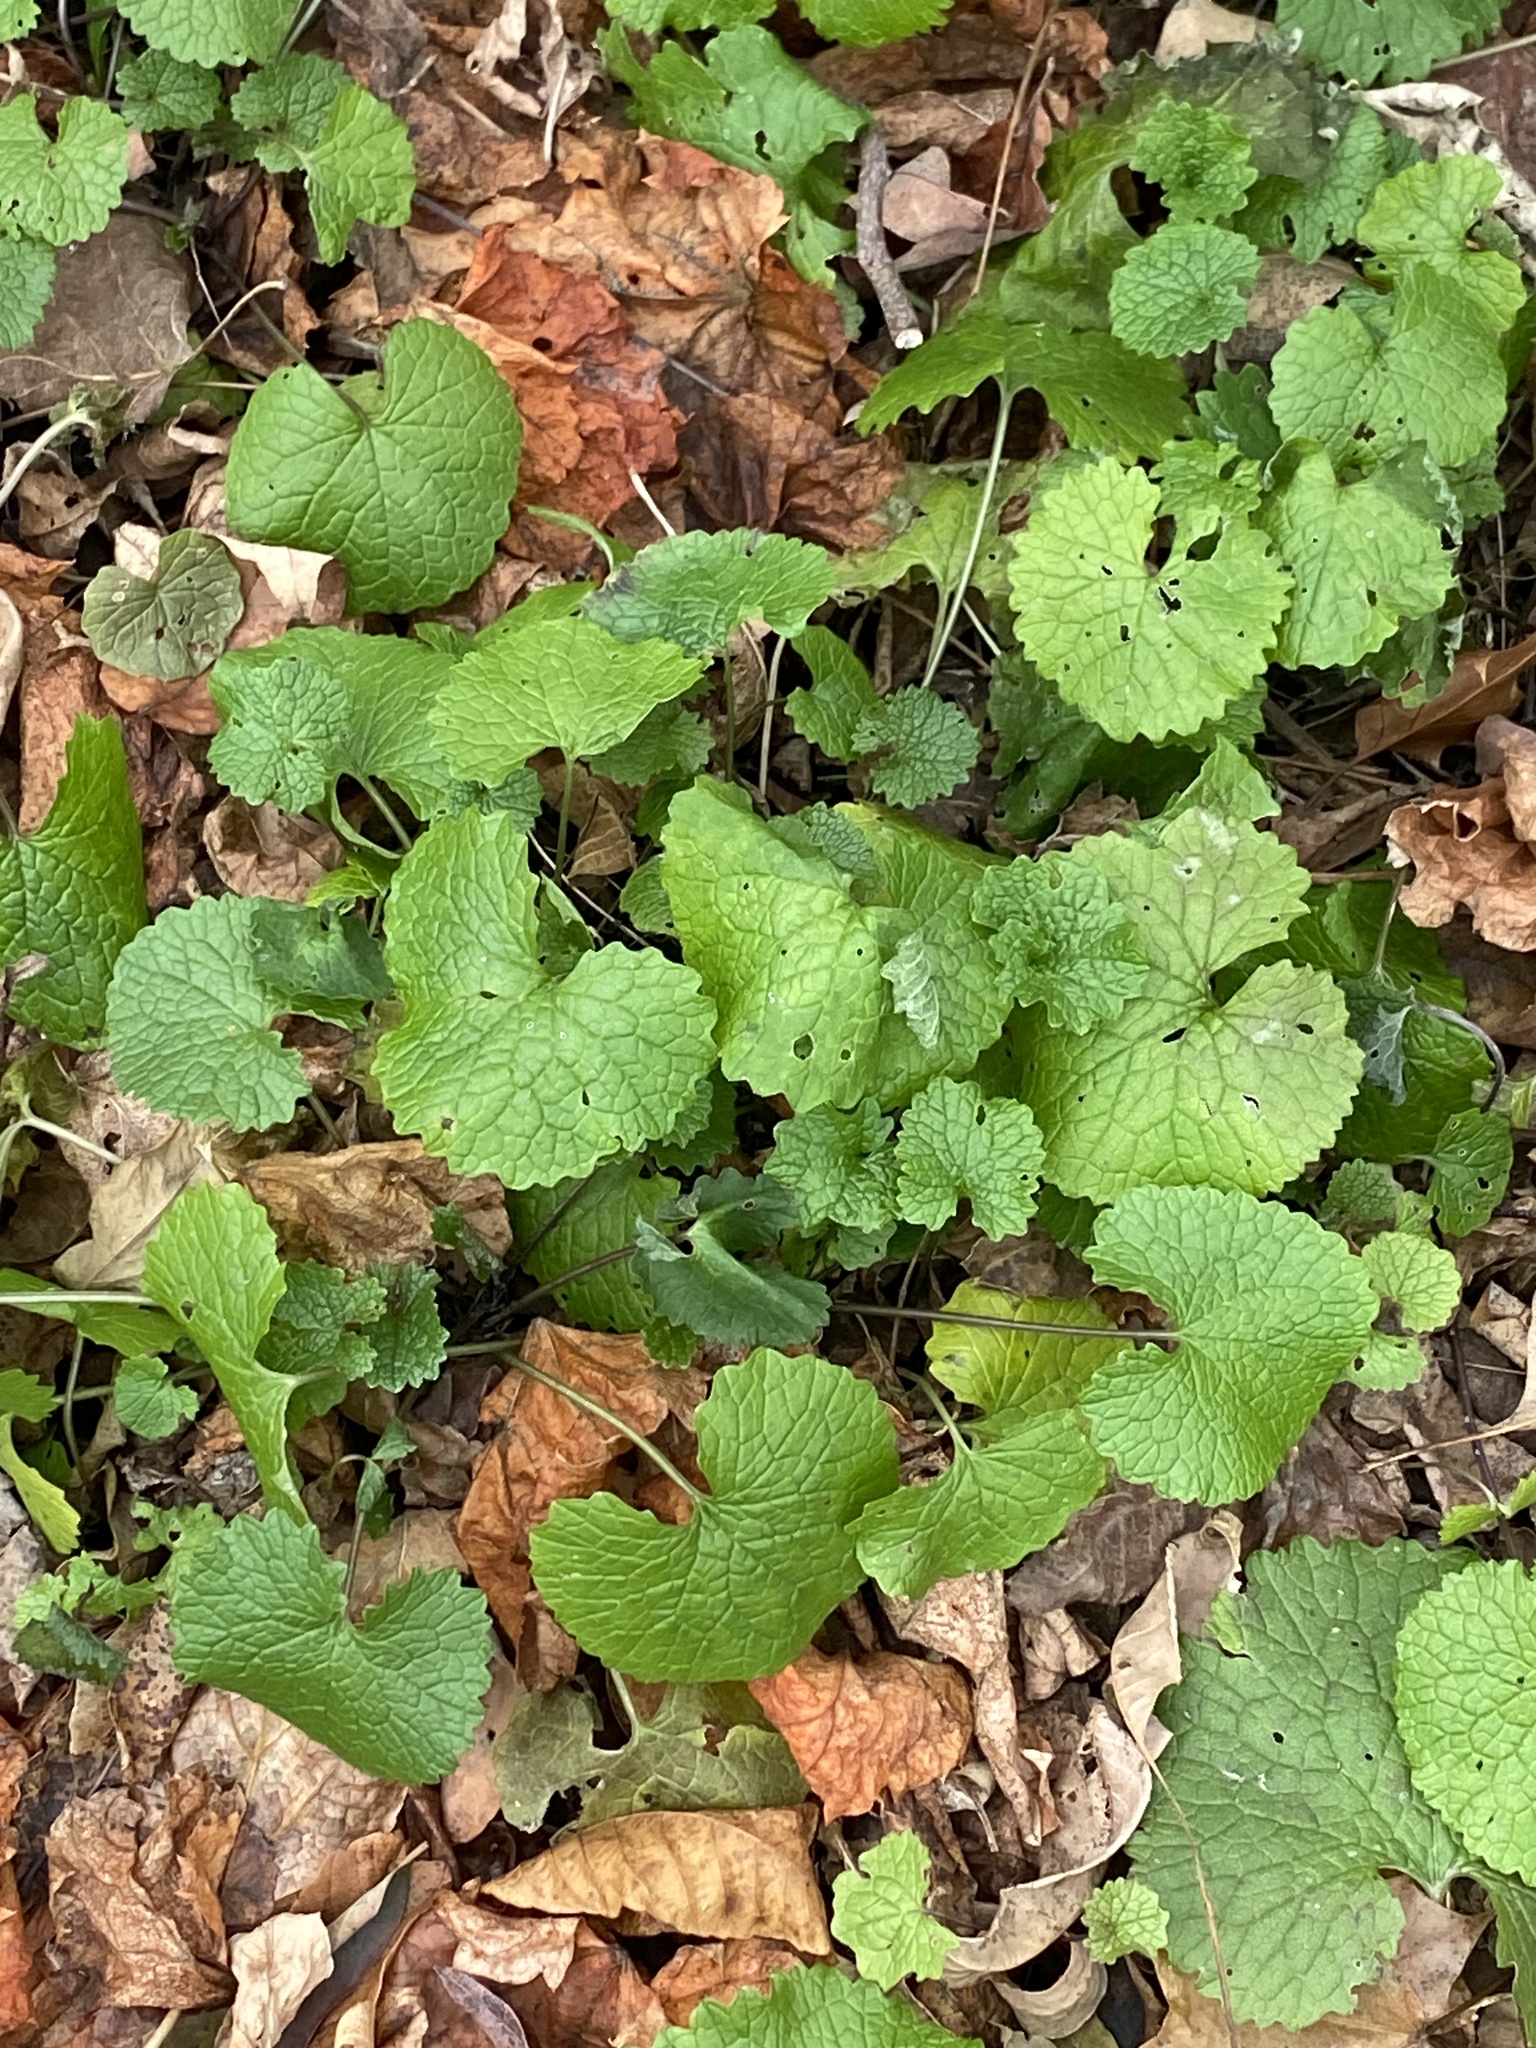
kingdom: Plantae
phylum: Tracheophyta
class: Magnoliopsida
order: Brassicales
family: Brassicaceae
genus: Alliaria
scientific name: Alliaria petiolata
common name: Garlic mustard
